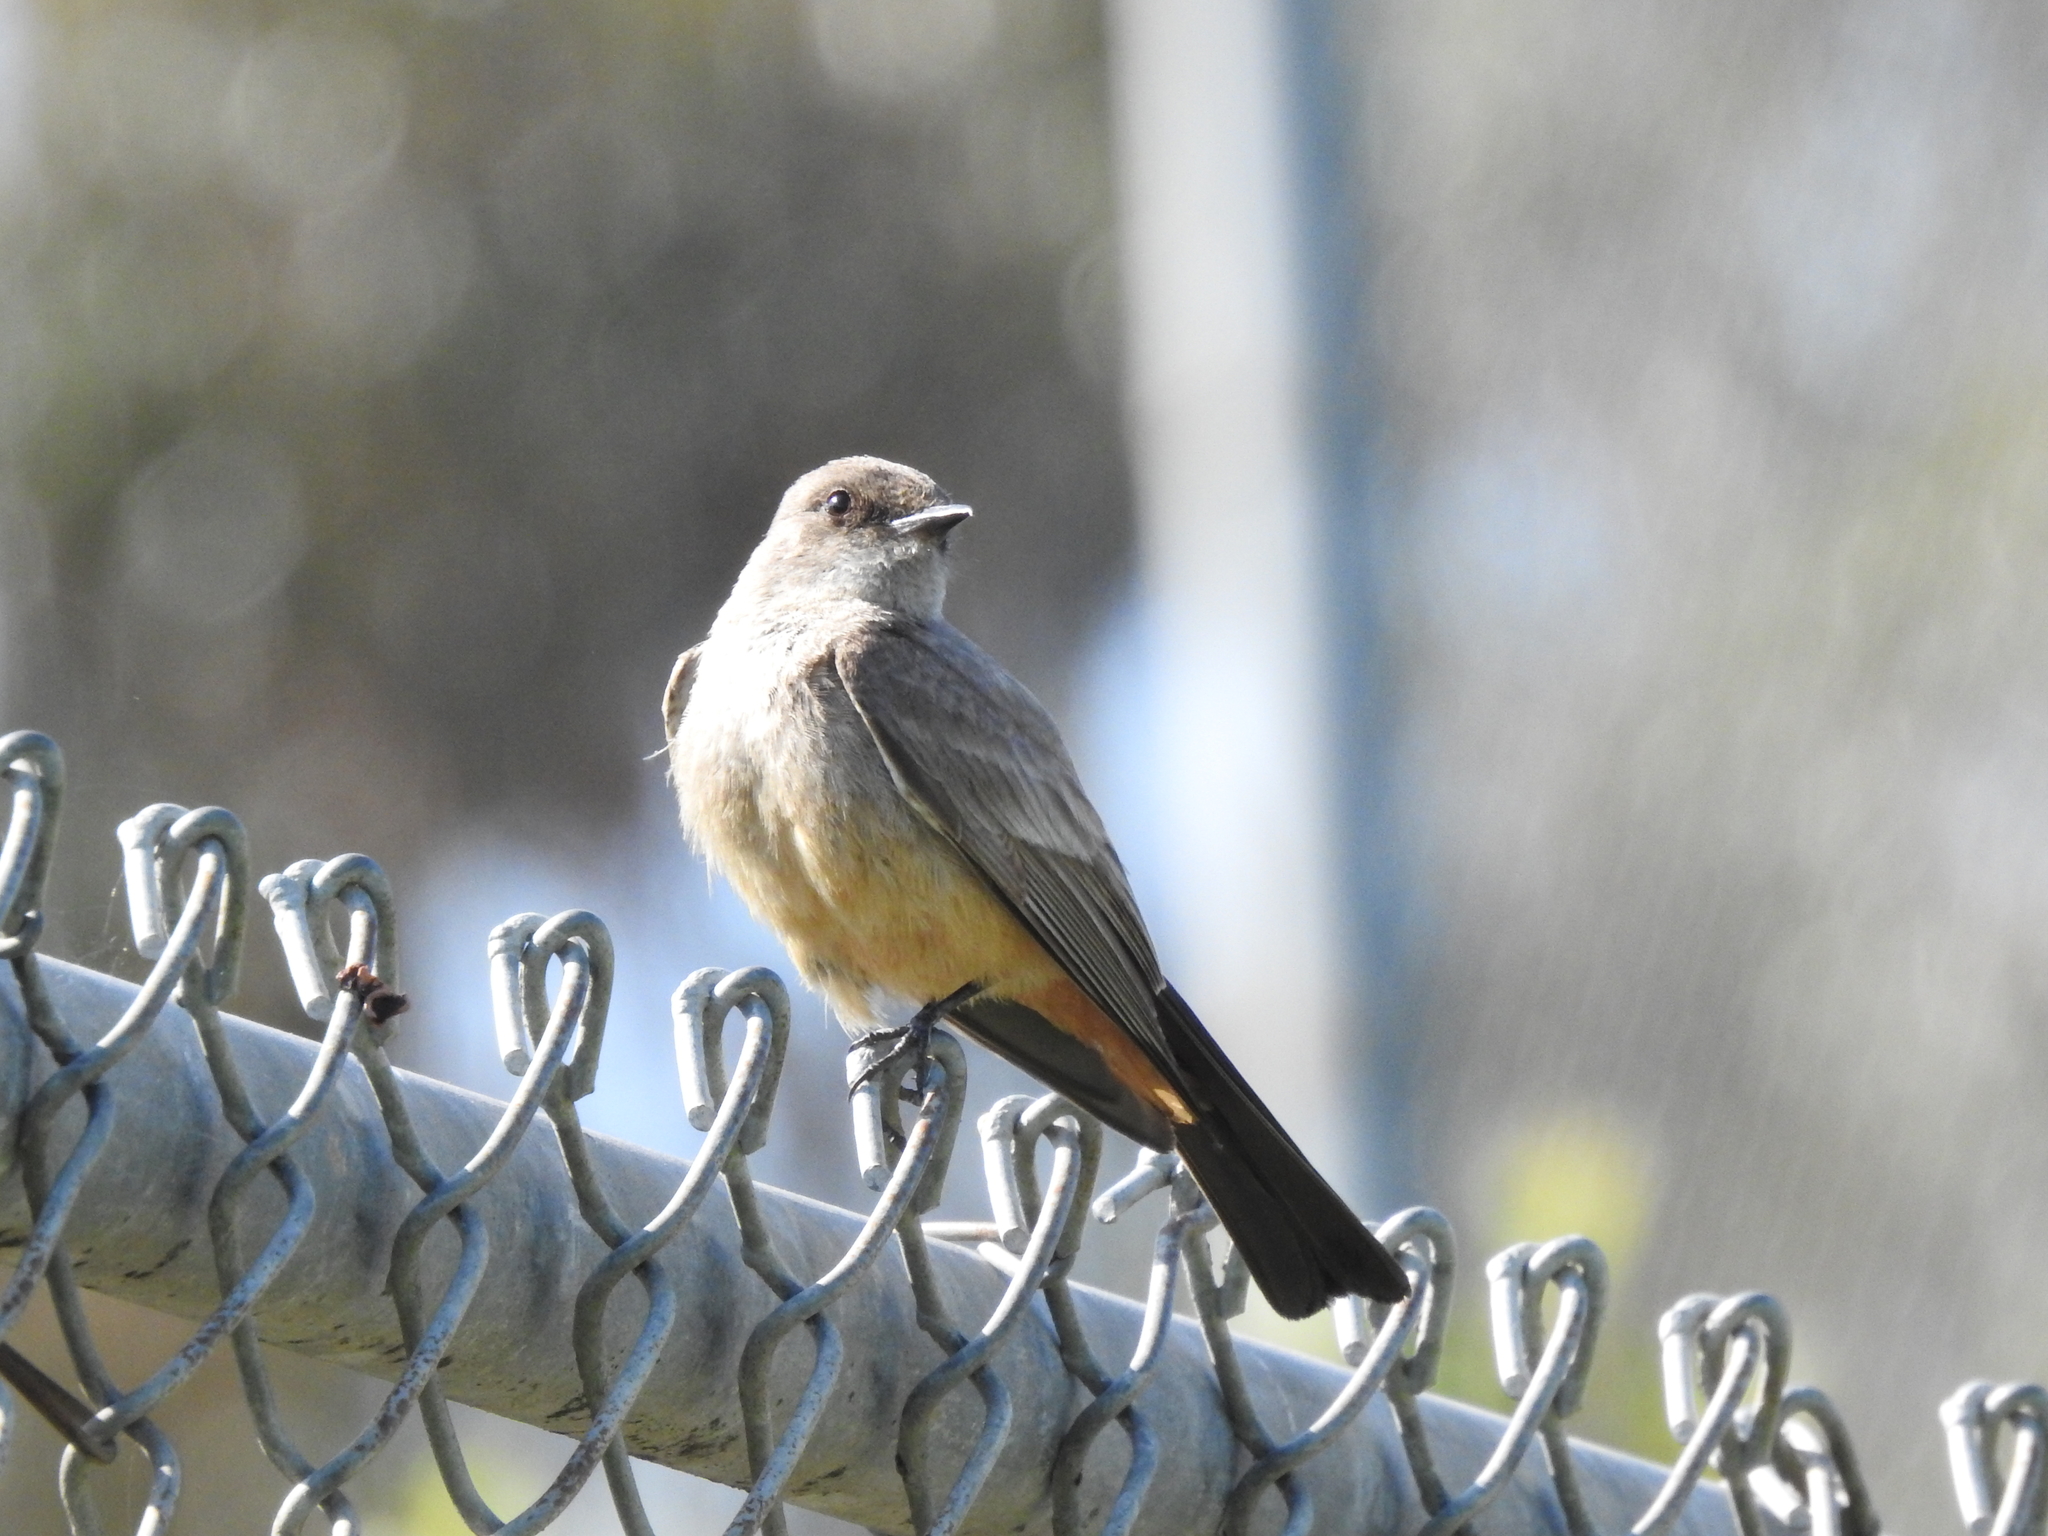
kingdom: Animalia
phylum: Chordata
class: Aves
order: Passeriformes
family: Tyrannidae
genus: Sayornis
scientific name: Sayornis saya
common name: Say's phoebe
